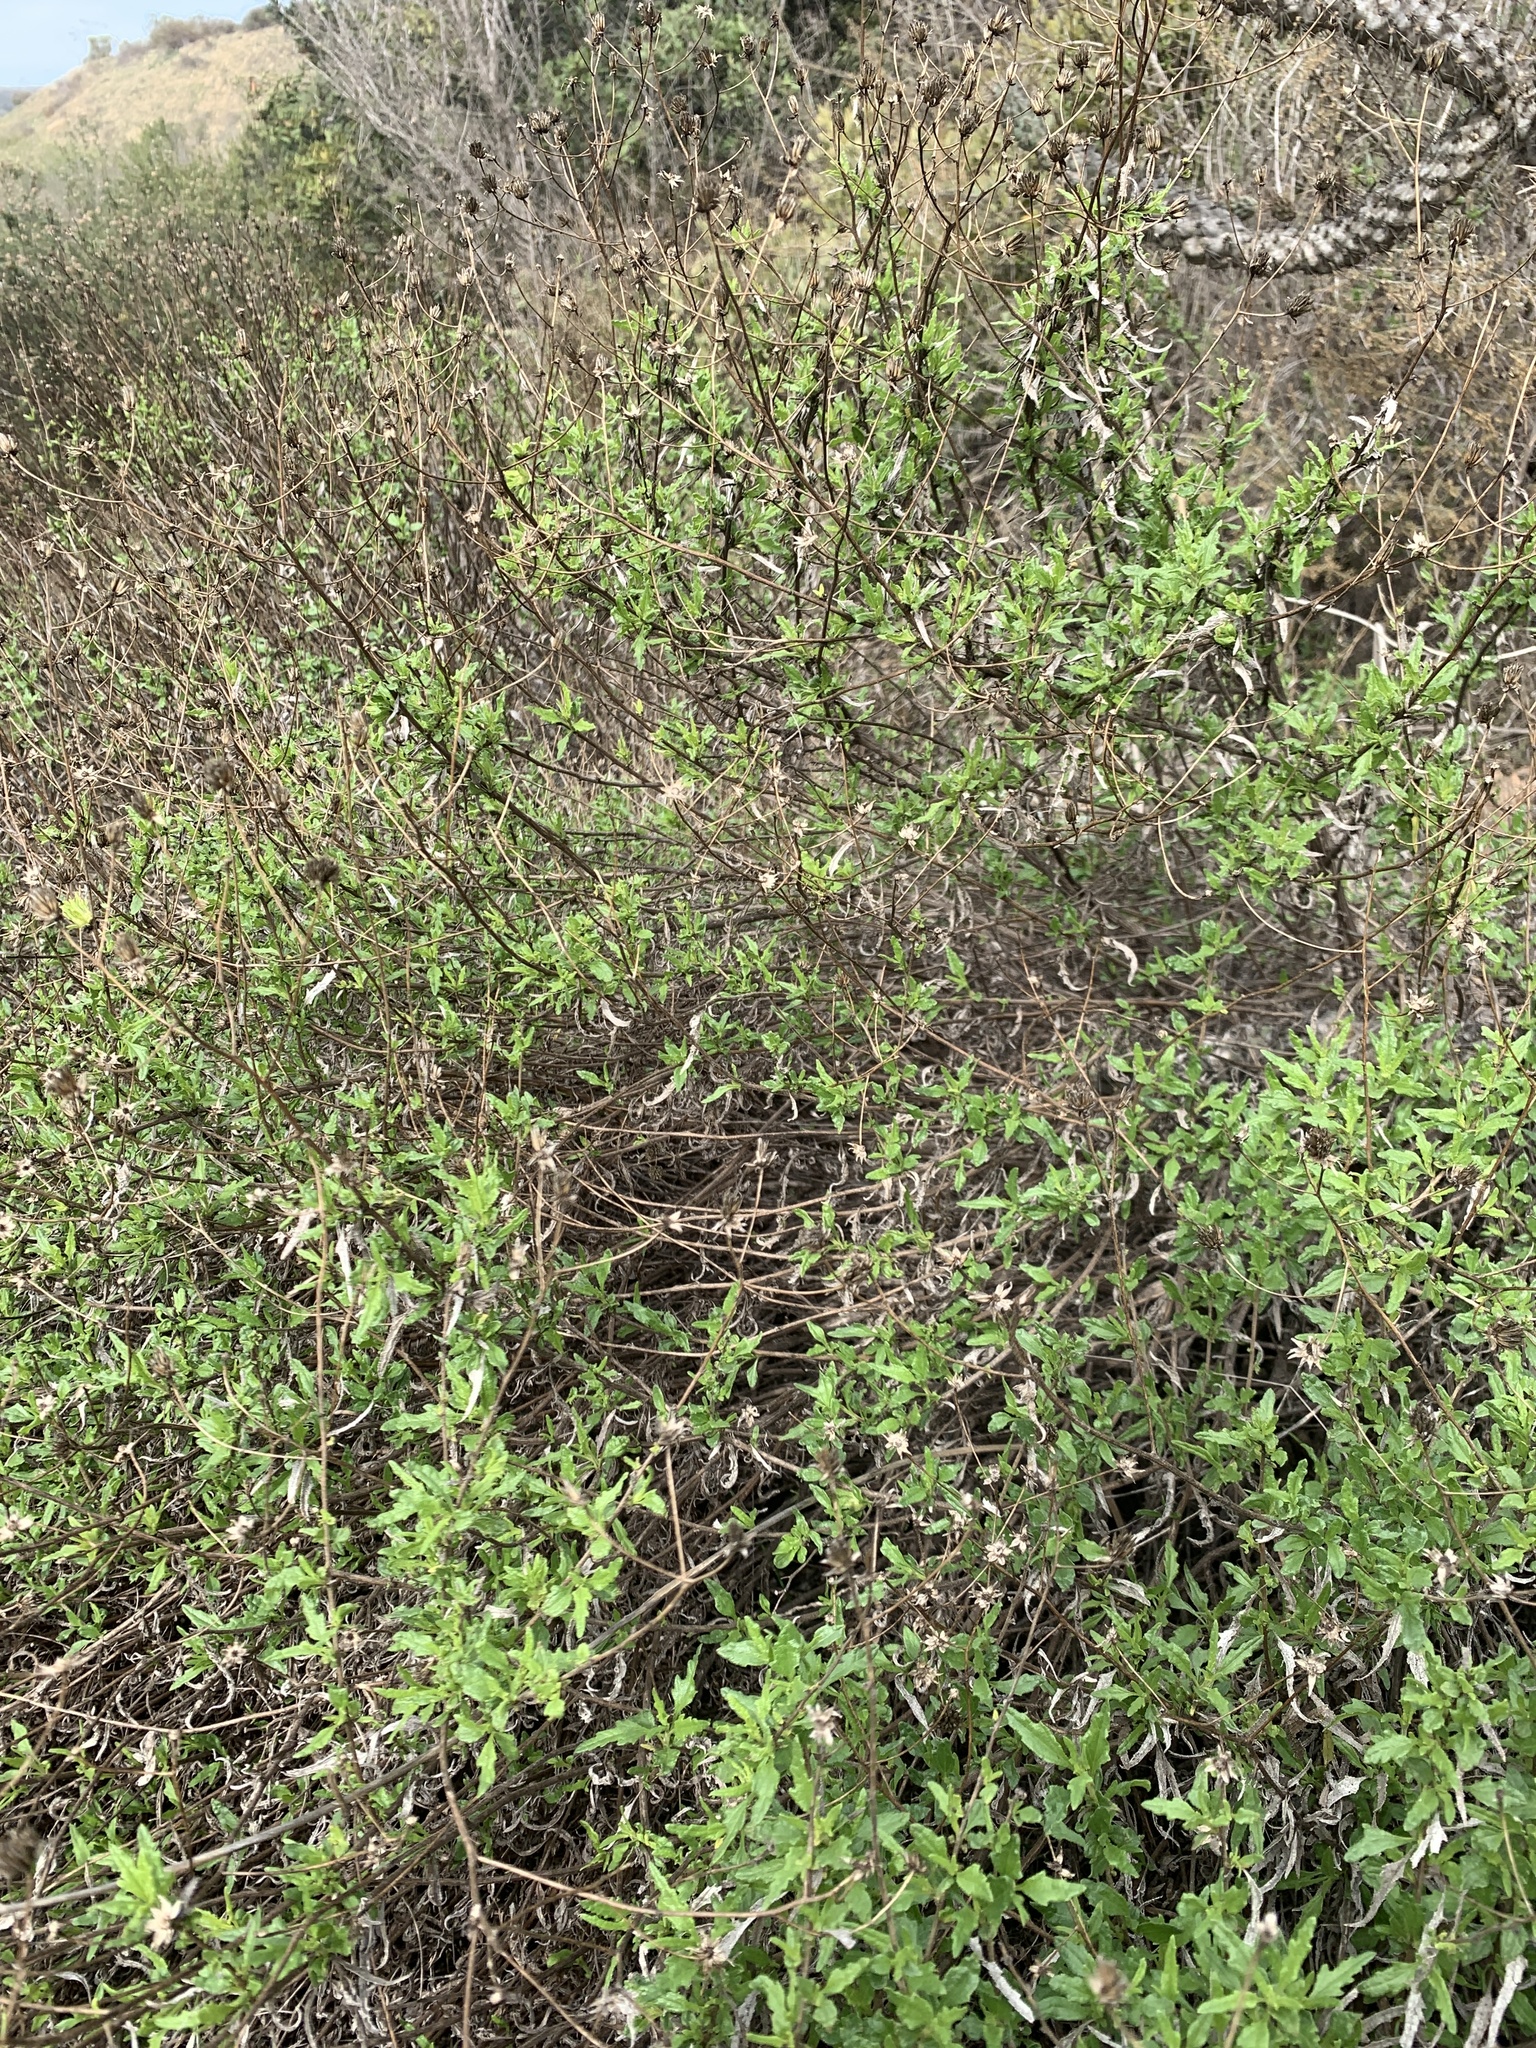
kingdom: Plantae
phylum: Tracheophyta
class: Magnoliopsida
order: Asterales
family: Asteraceae
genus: Bahiopsis
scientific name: Bahiopsis laciniata
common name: San diego county viguiera
